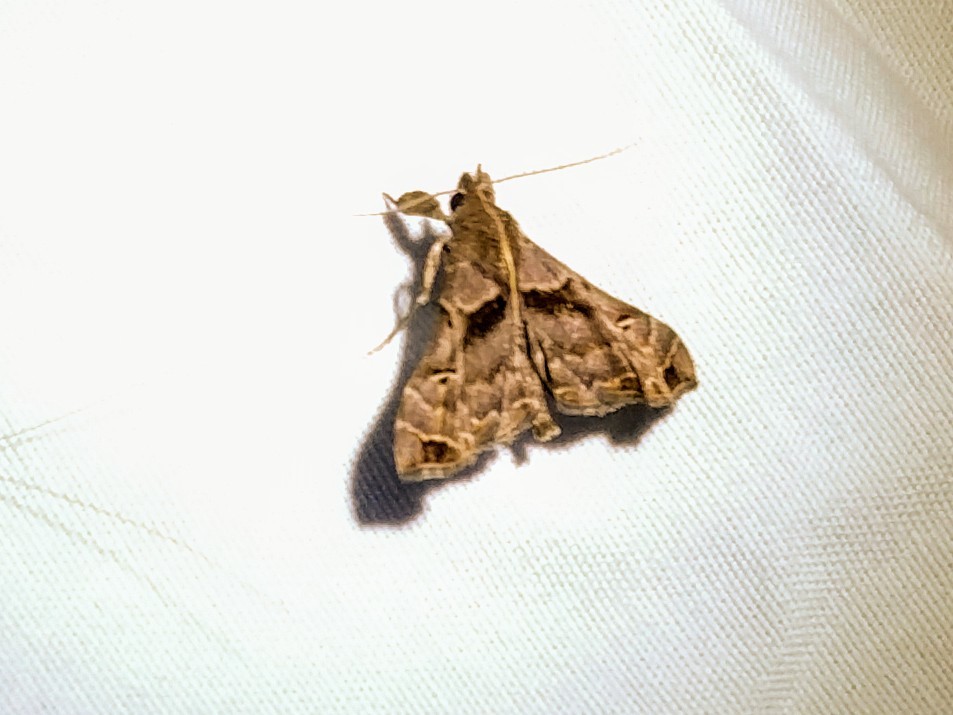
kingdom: Animalia
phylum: Arthropoda
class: Insecta
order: Lepidoptera
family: Erebidae
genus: Palthis
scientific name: Palthis asopialis
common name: Faint-spotted palthis moth
